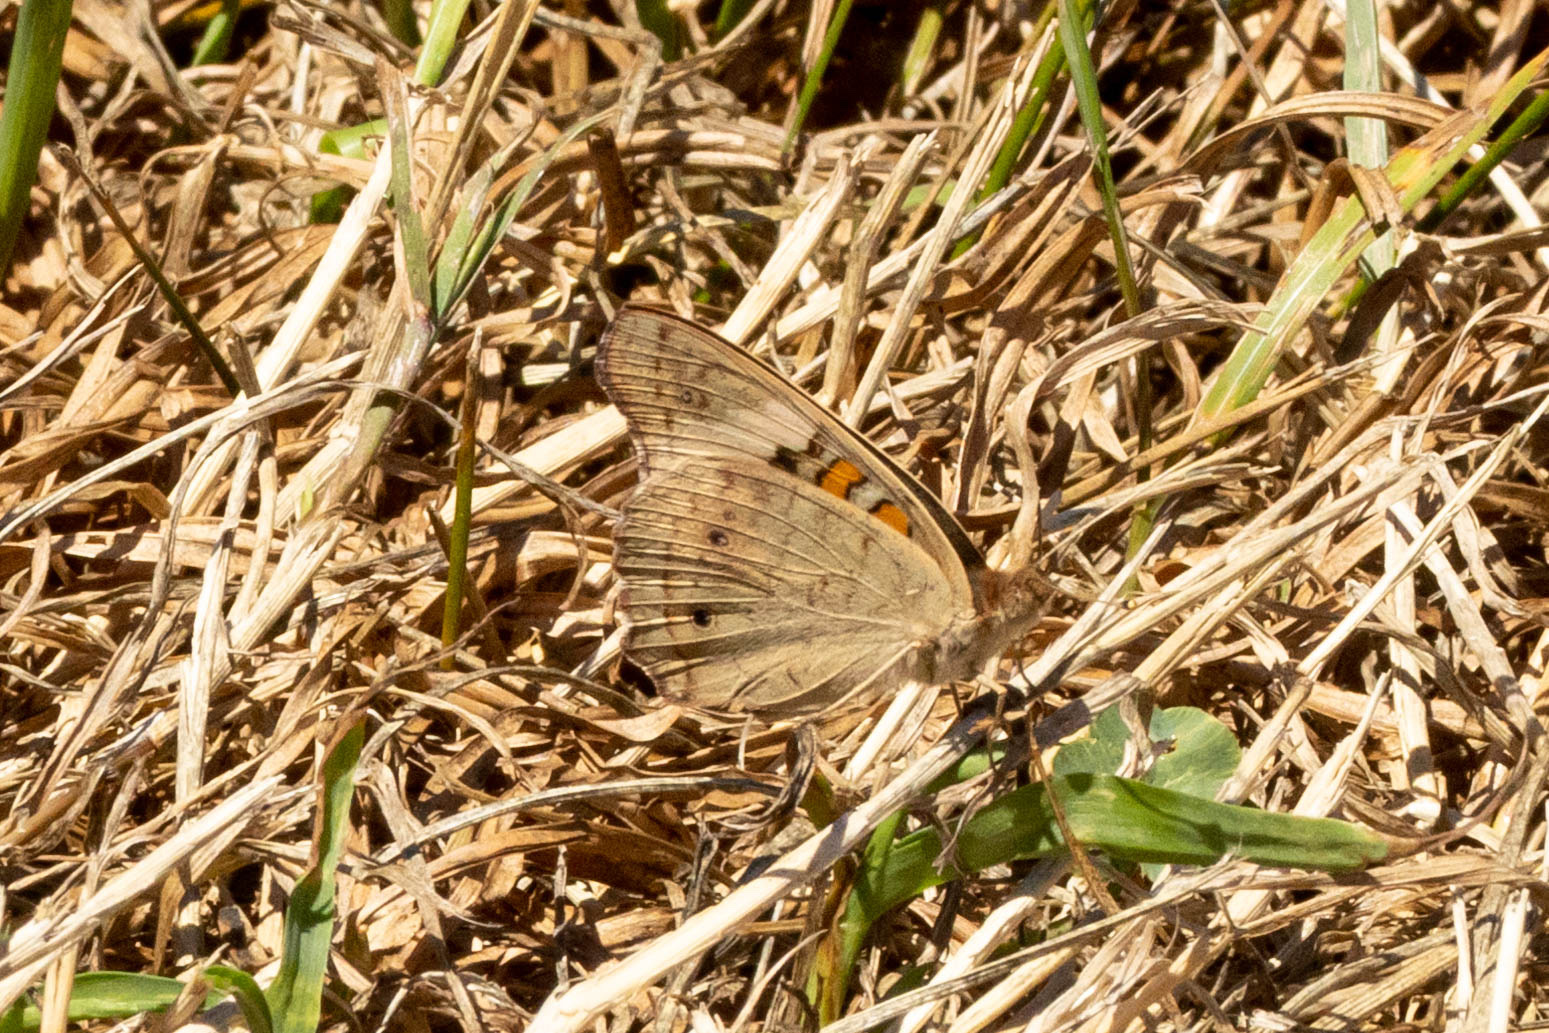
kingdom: Animalia
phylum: Arthropoda
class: Insecta
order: Lepidoptera
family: Nymphalidae
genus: Junonia
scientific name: Junonia coenia
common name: Common buckeye
